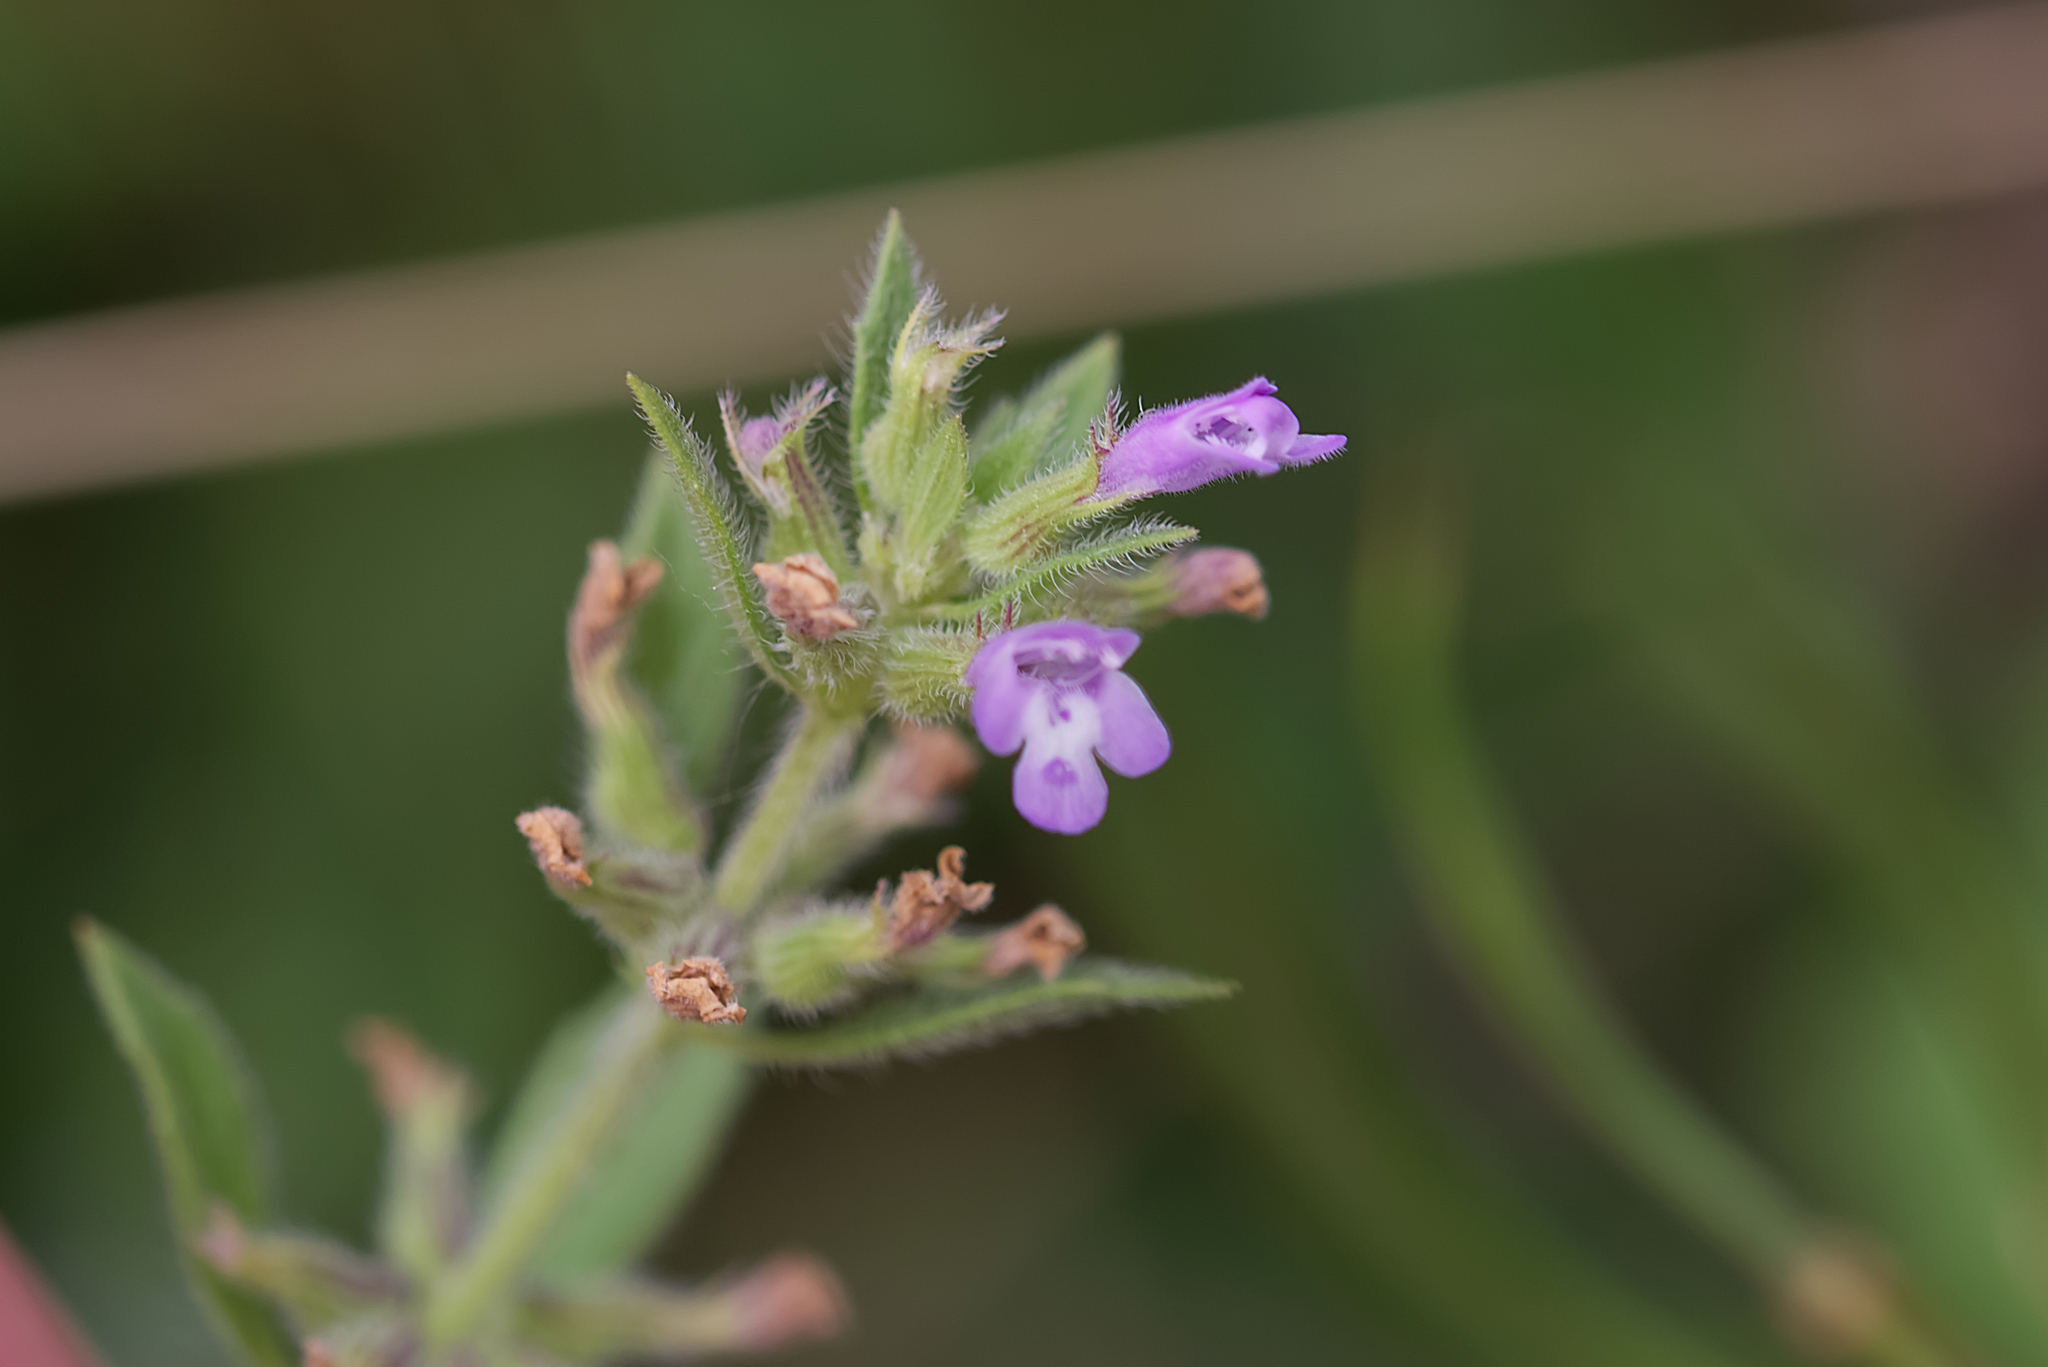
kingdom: Plantae
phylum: Tracheophyta
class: Magnoliopsida
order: Lamiales
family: Lamiaceae
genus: Clinopodium
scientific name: Clinopodium acinos
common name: Basil thyme
